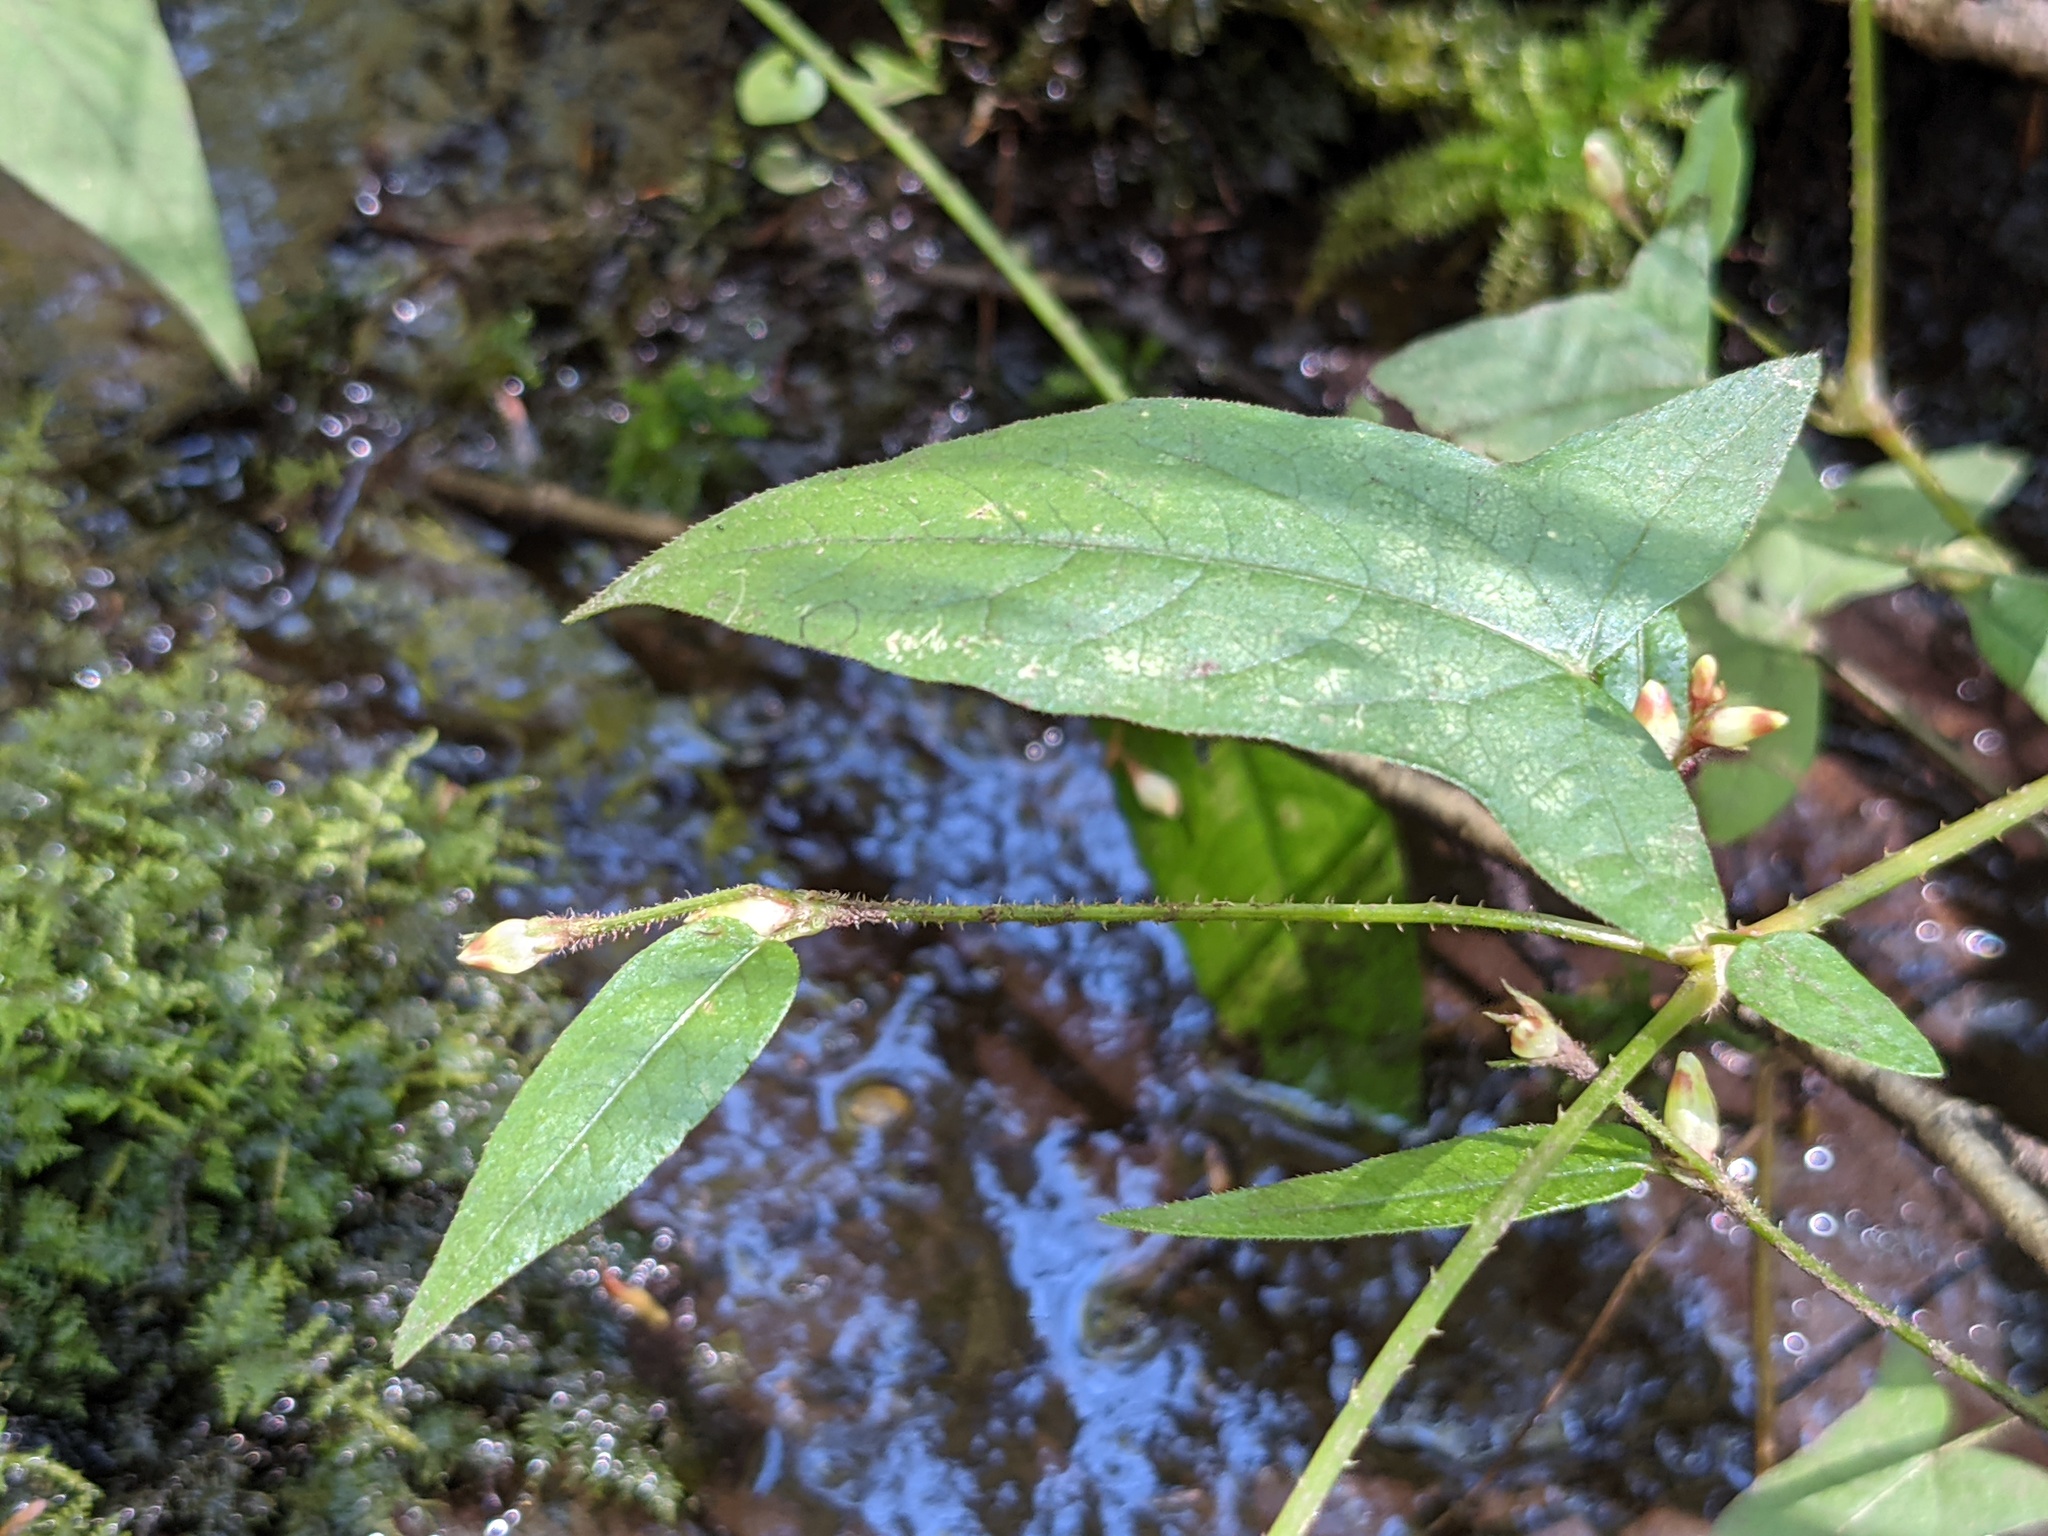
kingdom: Plantae
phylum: Tracheophyta
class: Magnoliopsida
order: Caryophyllales
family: Polygonaceae
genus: Persicaria
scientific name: Persicaria arifolia
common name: Halberd-leaved tear-thumb
